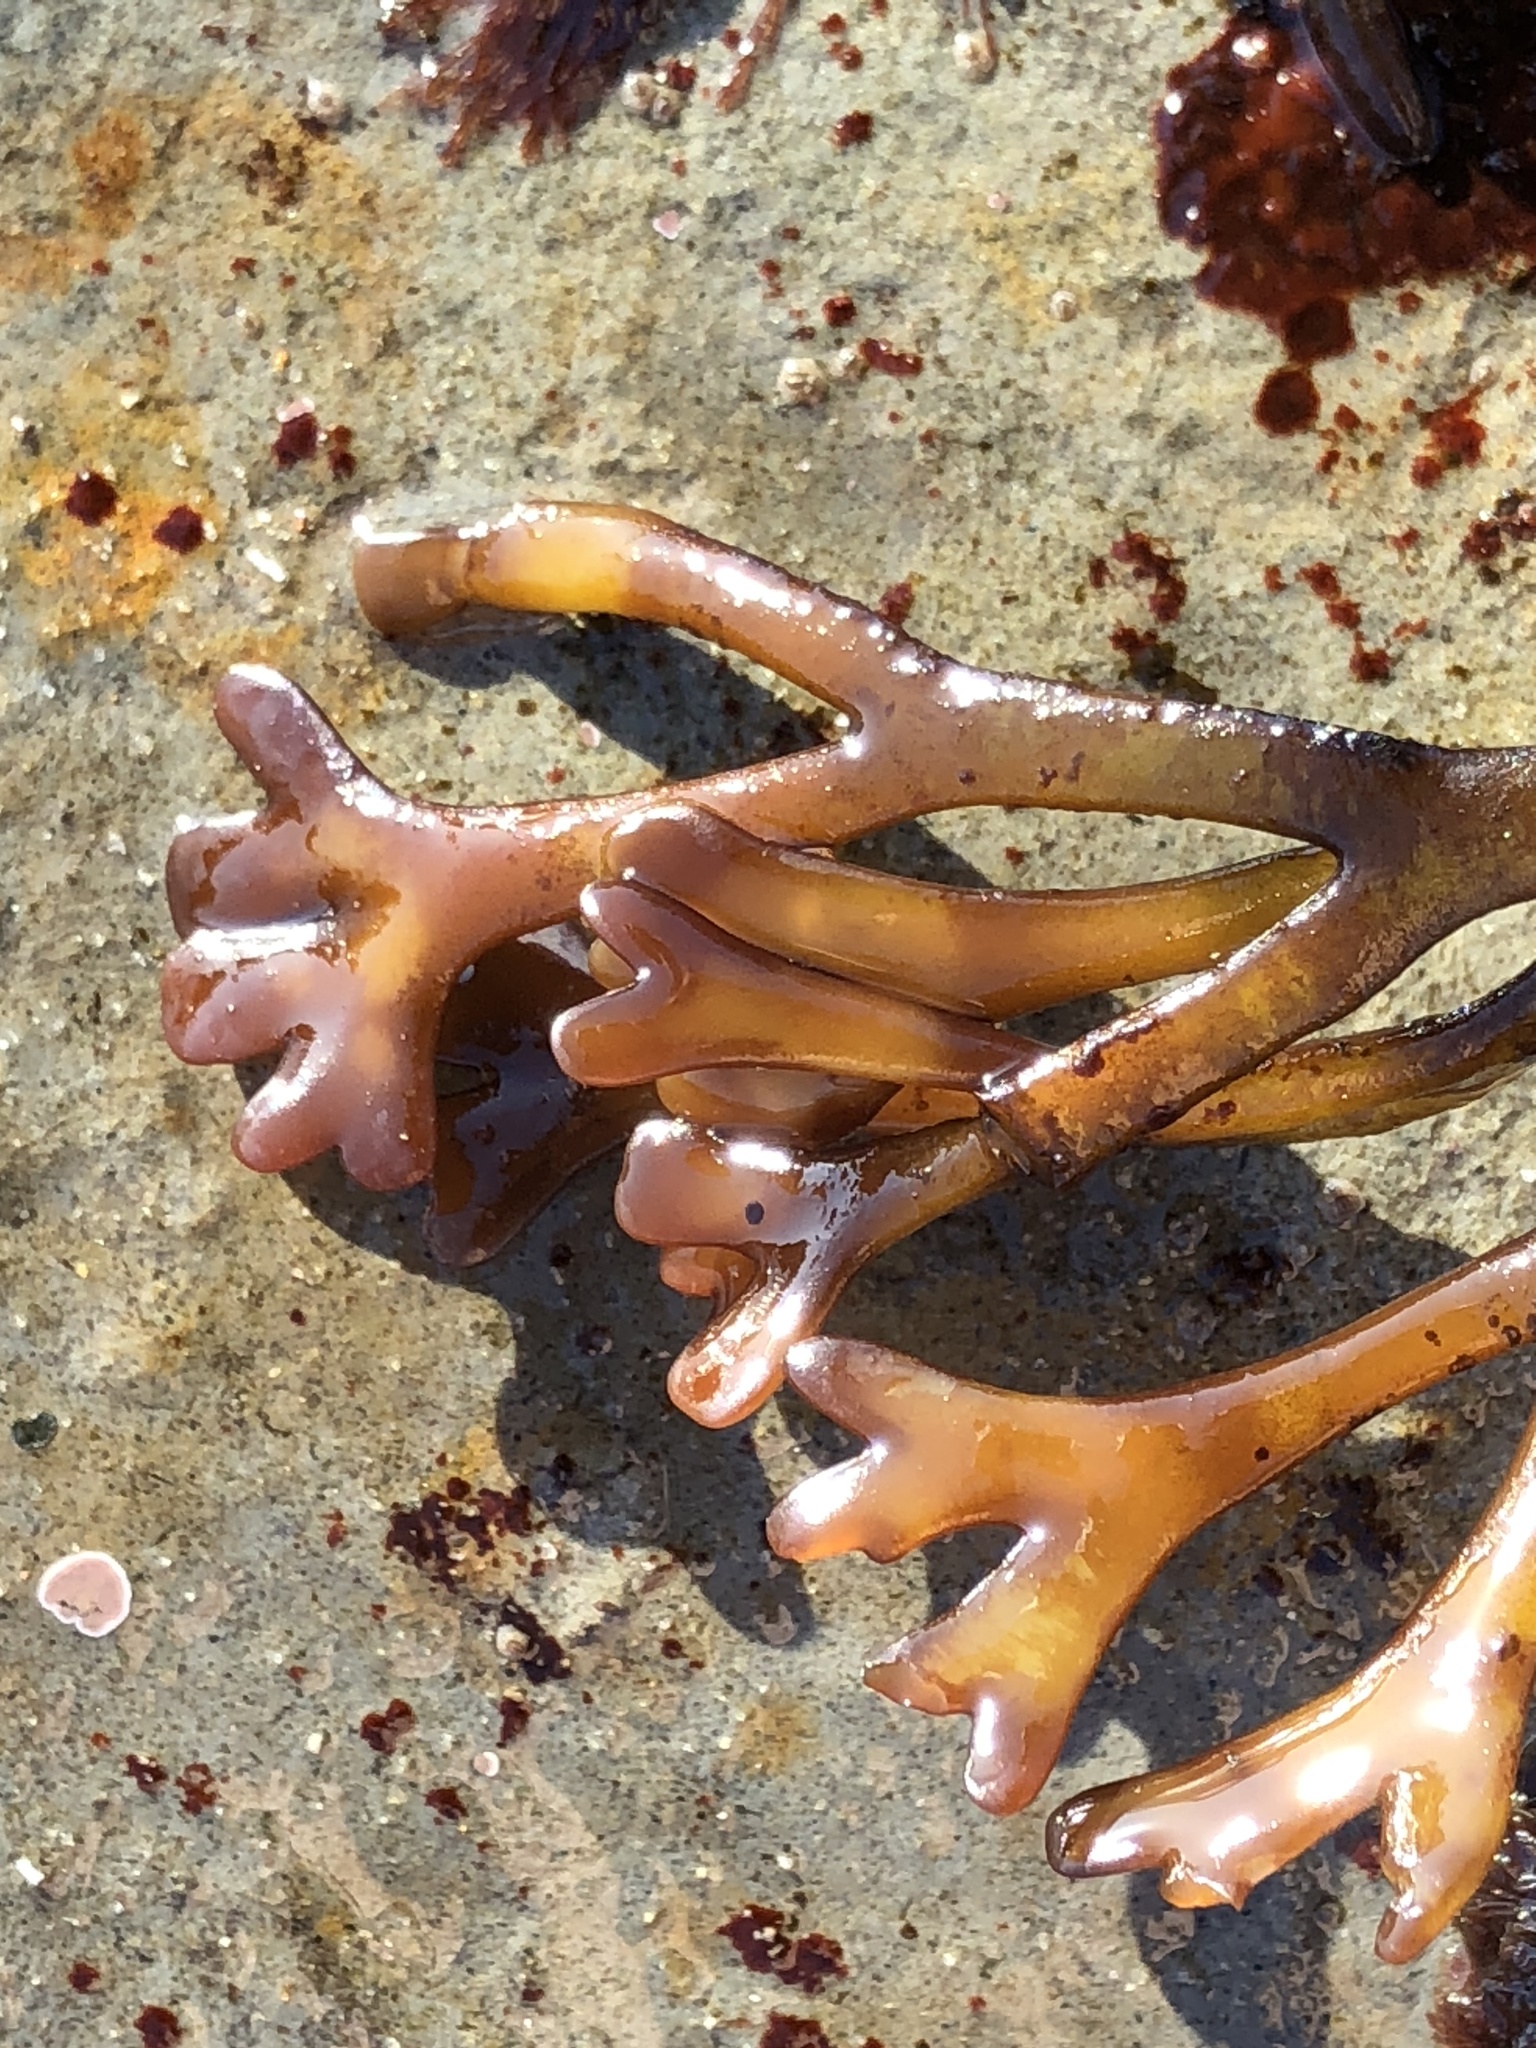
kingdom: Plantae
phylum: Rhodophyta
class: Florideophyceae
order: Gigartinales
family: Phyllophoraceae
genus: Ahnfeltiopsis
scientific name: Ahnfeltiopsis linearis
